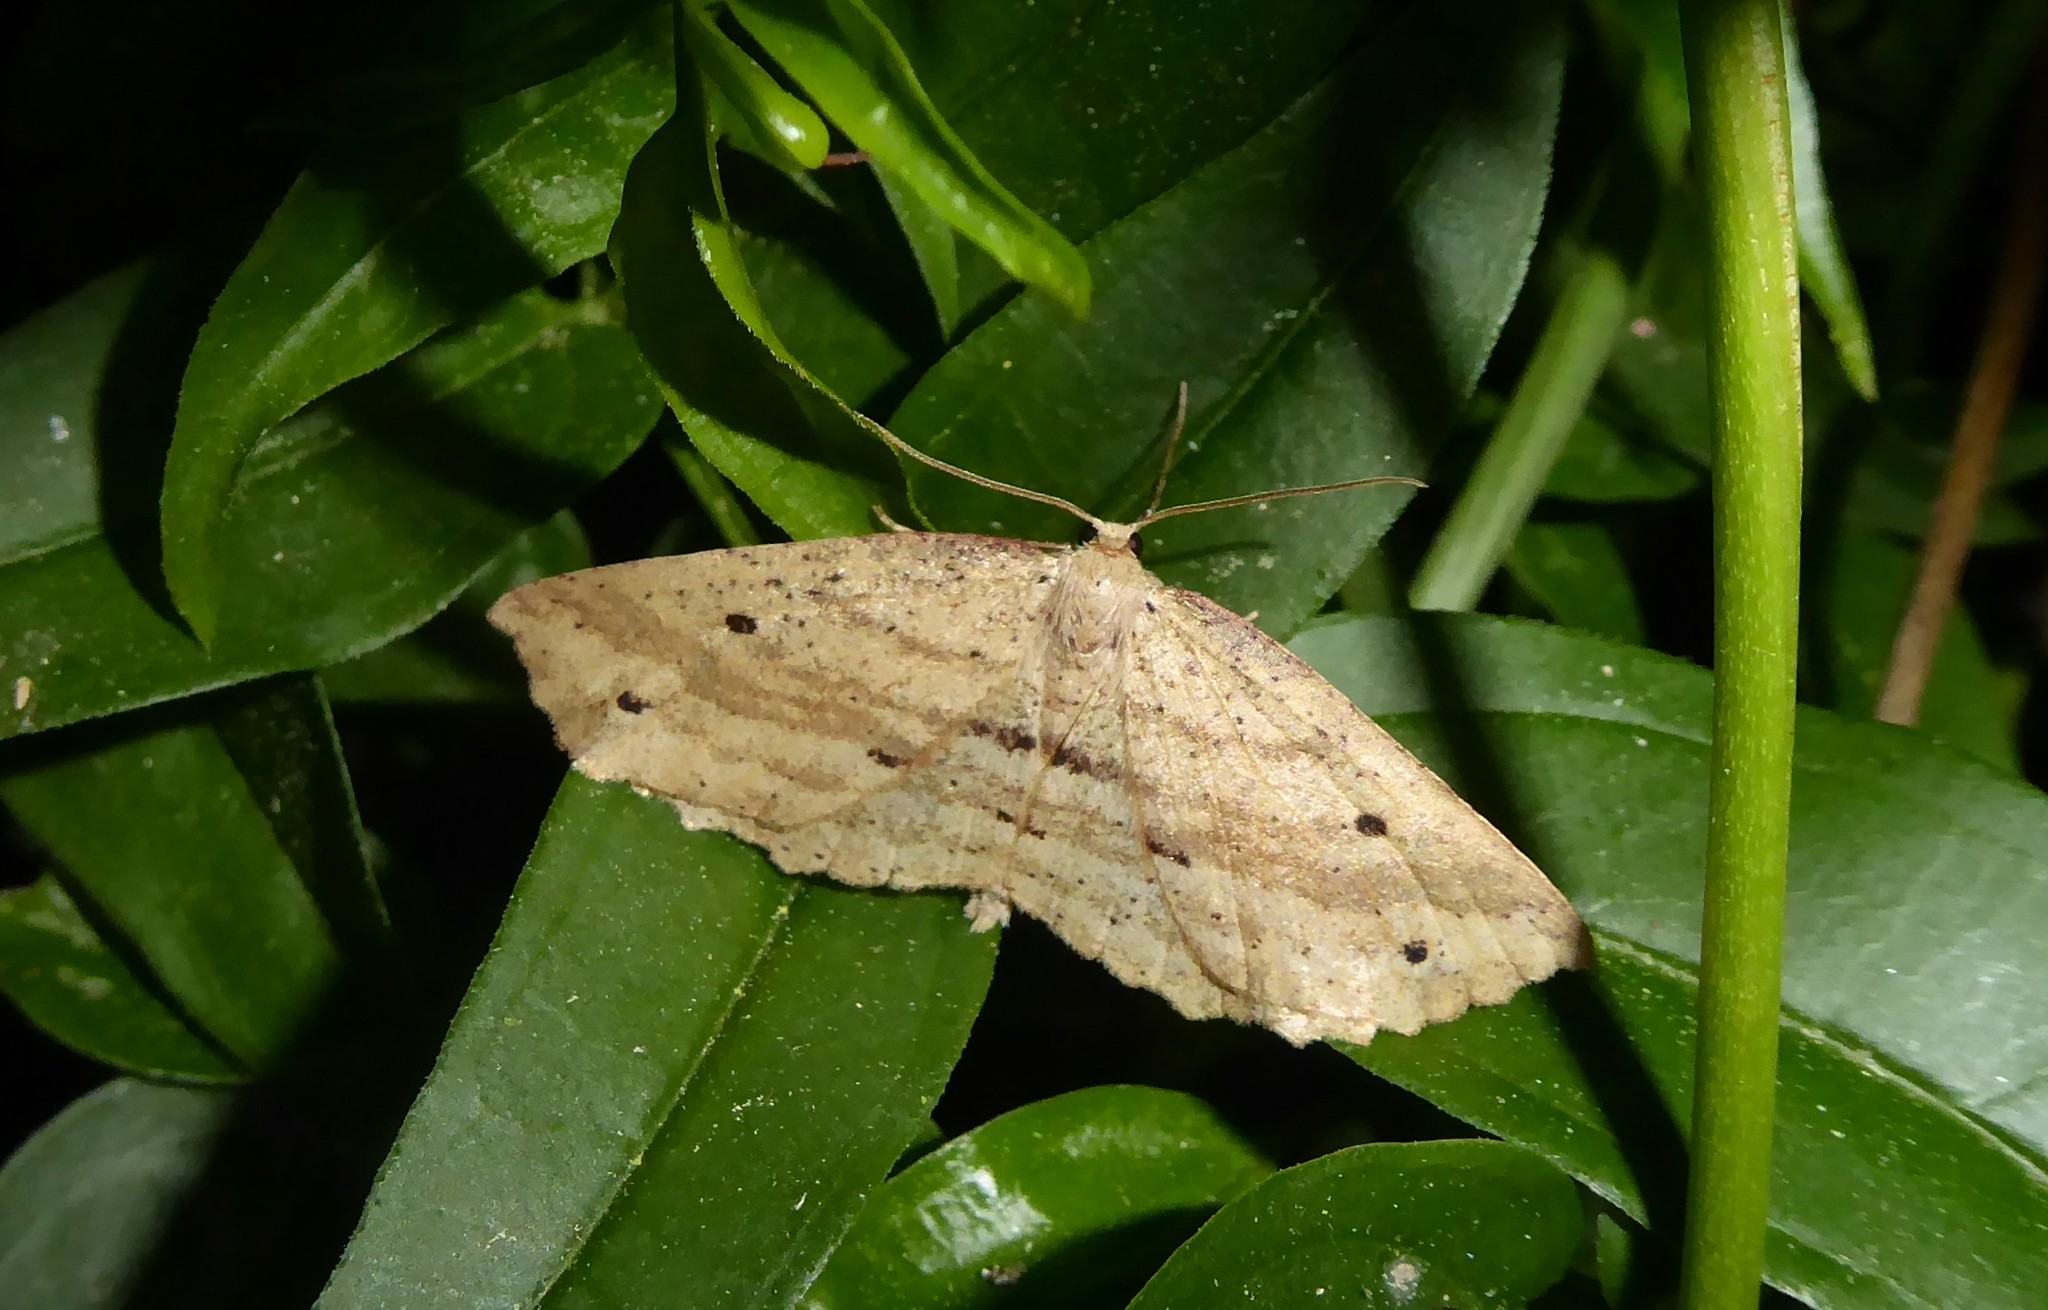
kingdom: Animalia
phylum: Arthropoda
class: Insecta
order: Lepidoptera
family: Geometridae
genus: Xyridacma
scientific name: Xyridacma veronicae
